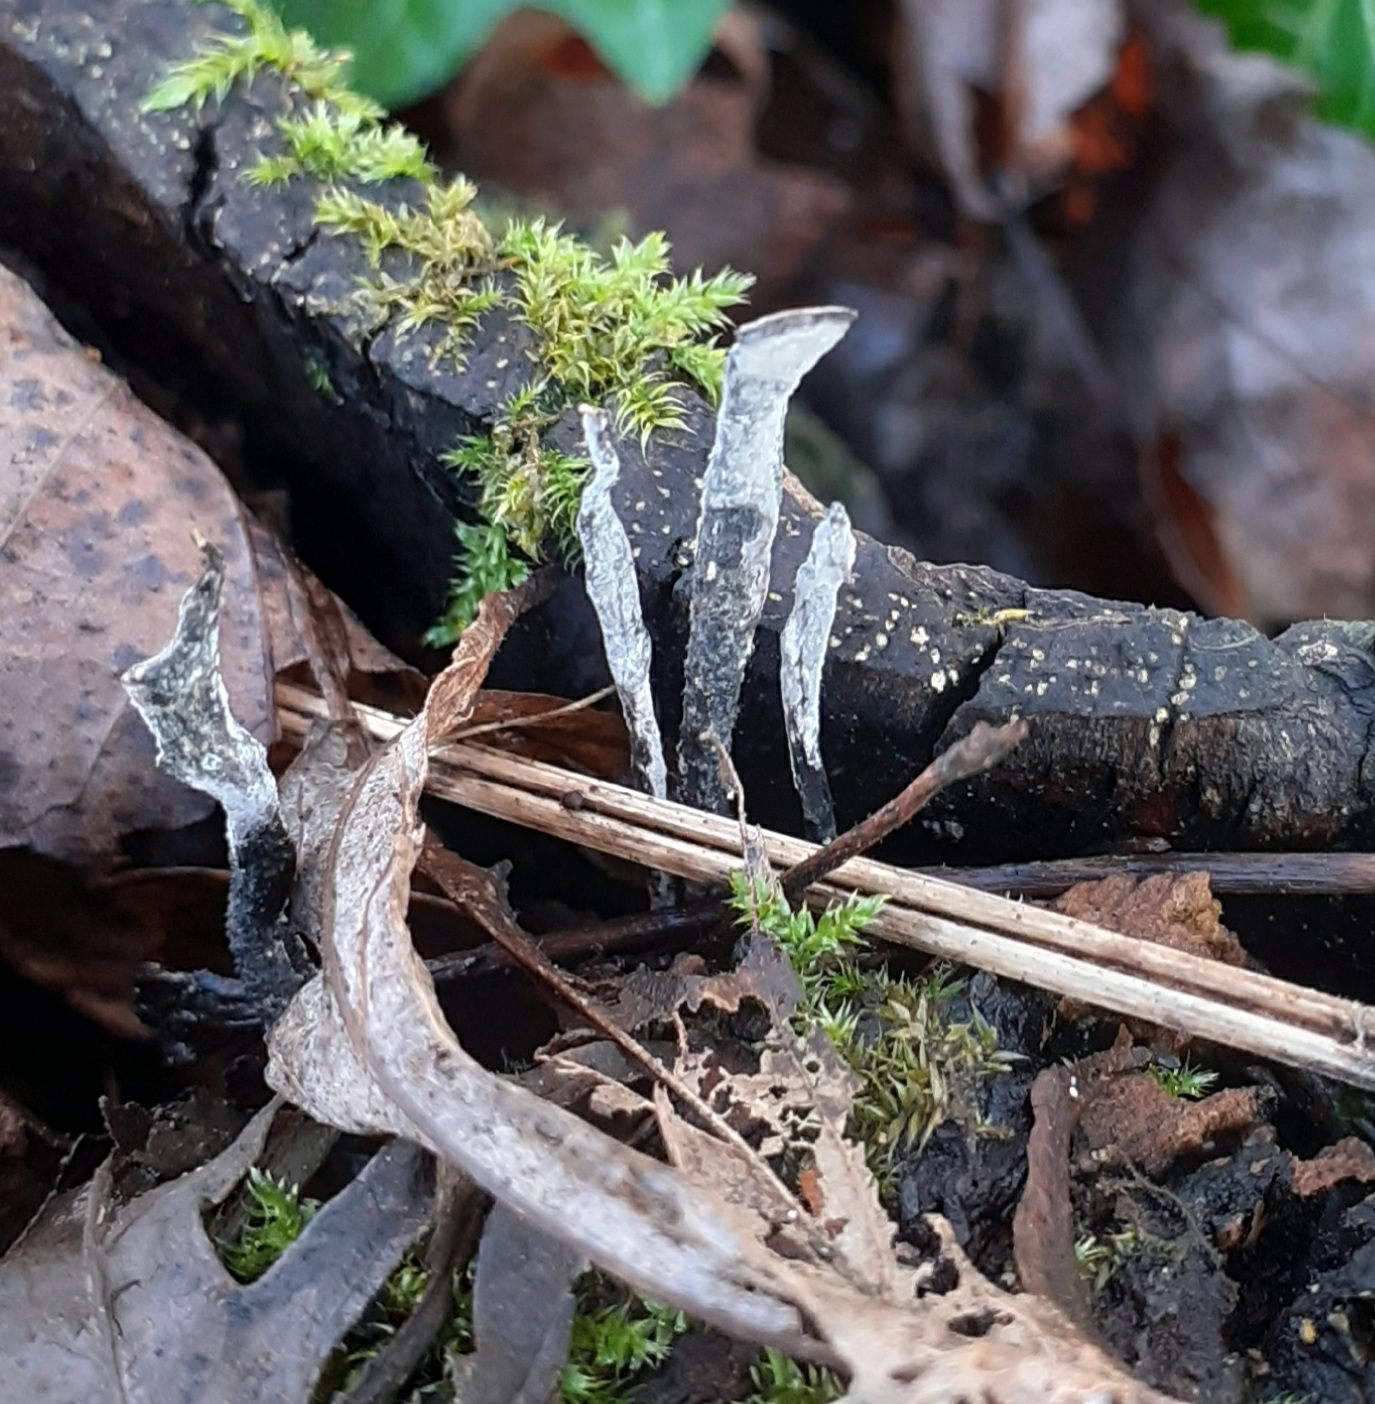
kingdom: Fungi
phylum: Ascomycota
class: Sordariomycetes
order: Xylariales
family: Xylariaceae
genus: Xylaria
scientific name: Xylaria hypoxylon
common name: Candle-snuff fungus
